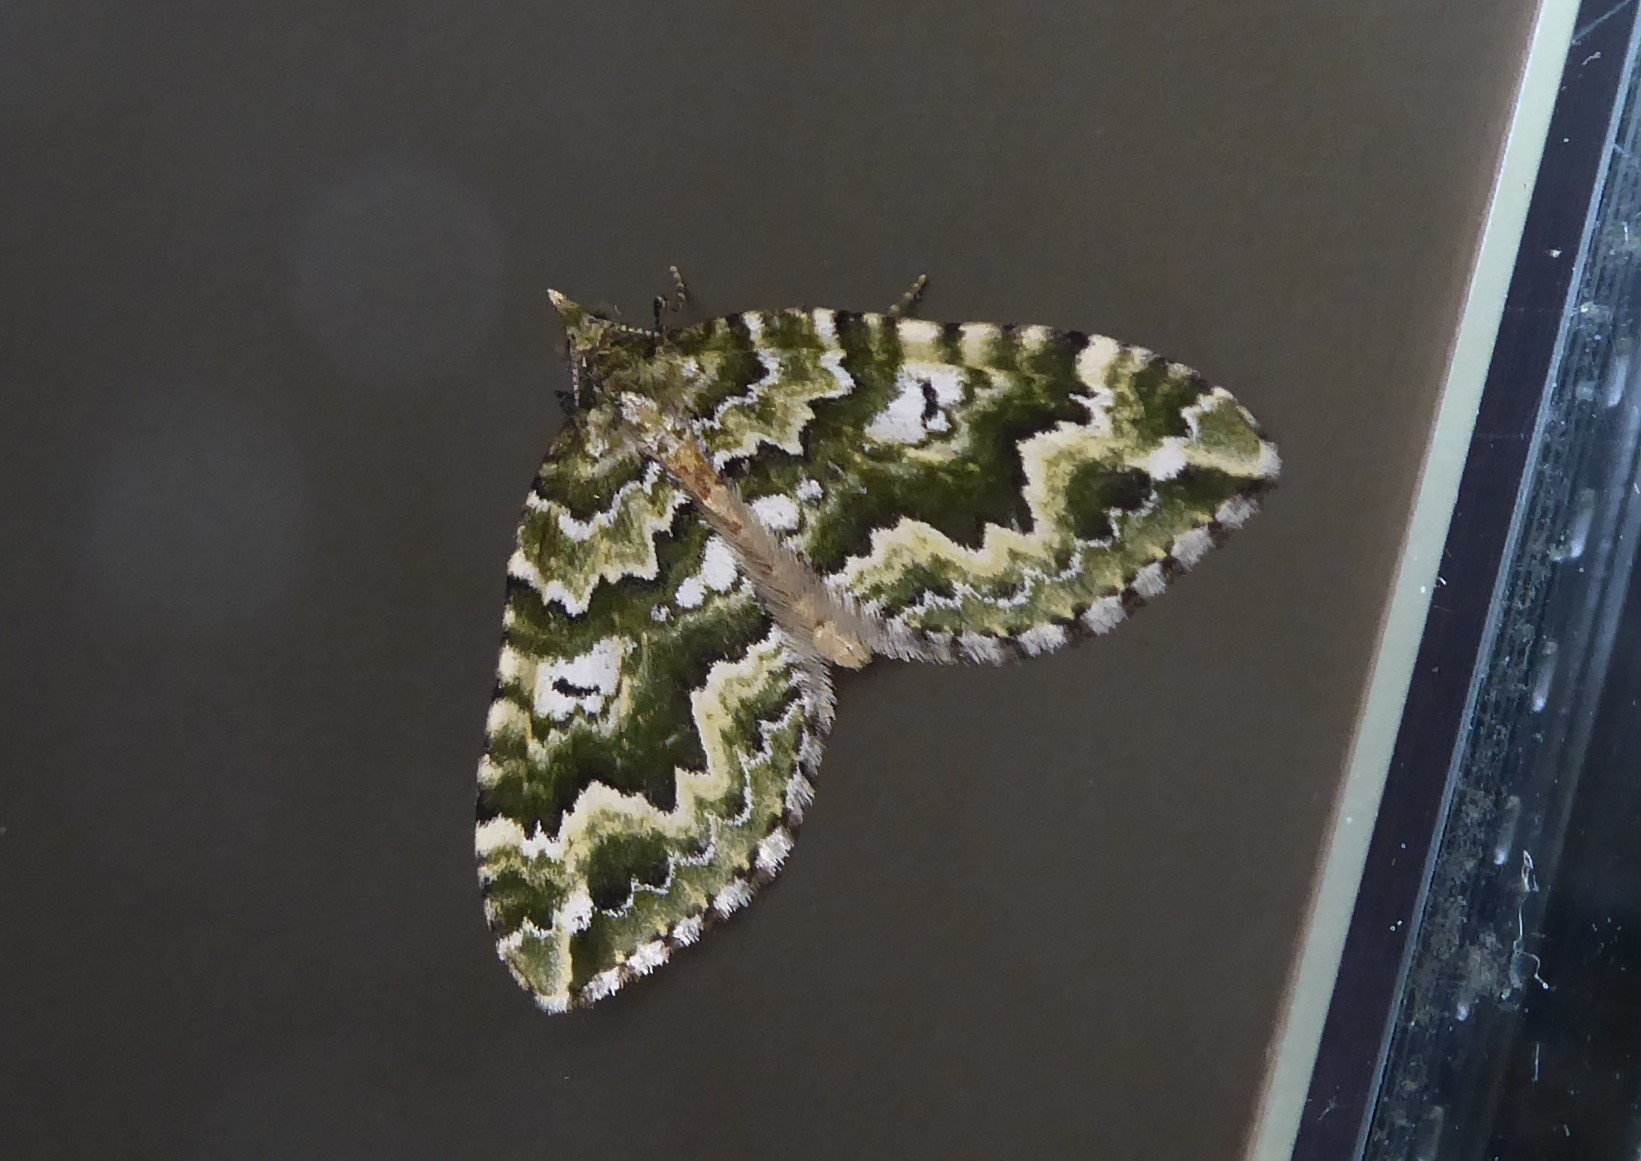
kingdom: Animalia
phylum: Arthropoda
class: Insecta
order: Lepidoptera
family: Geometridae
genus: Asaphodes
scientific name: Asaphodes beata
